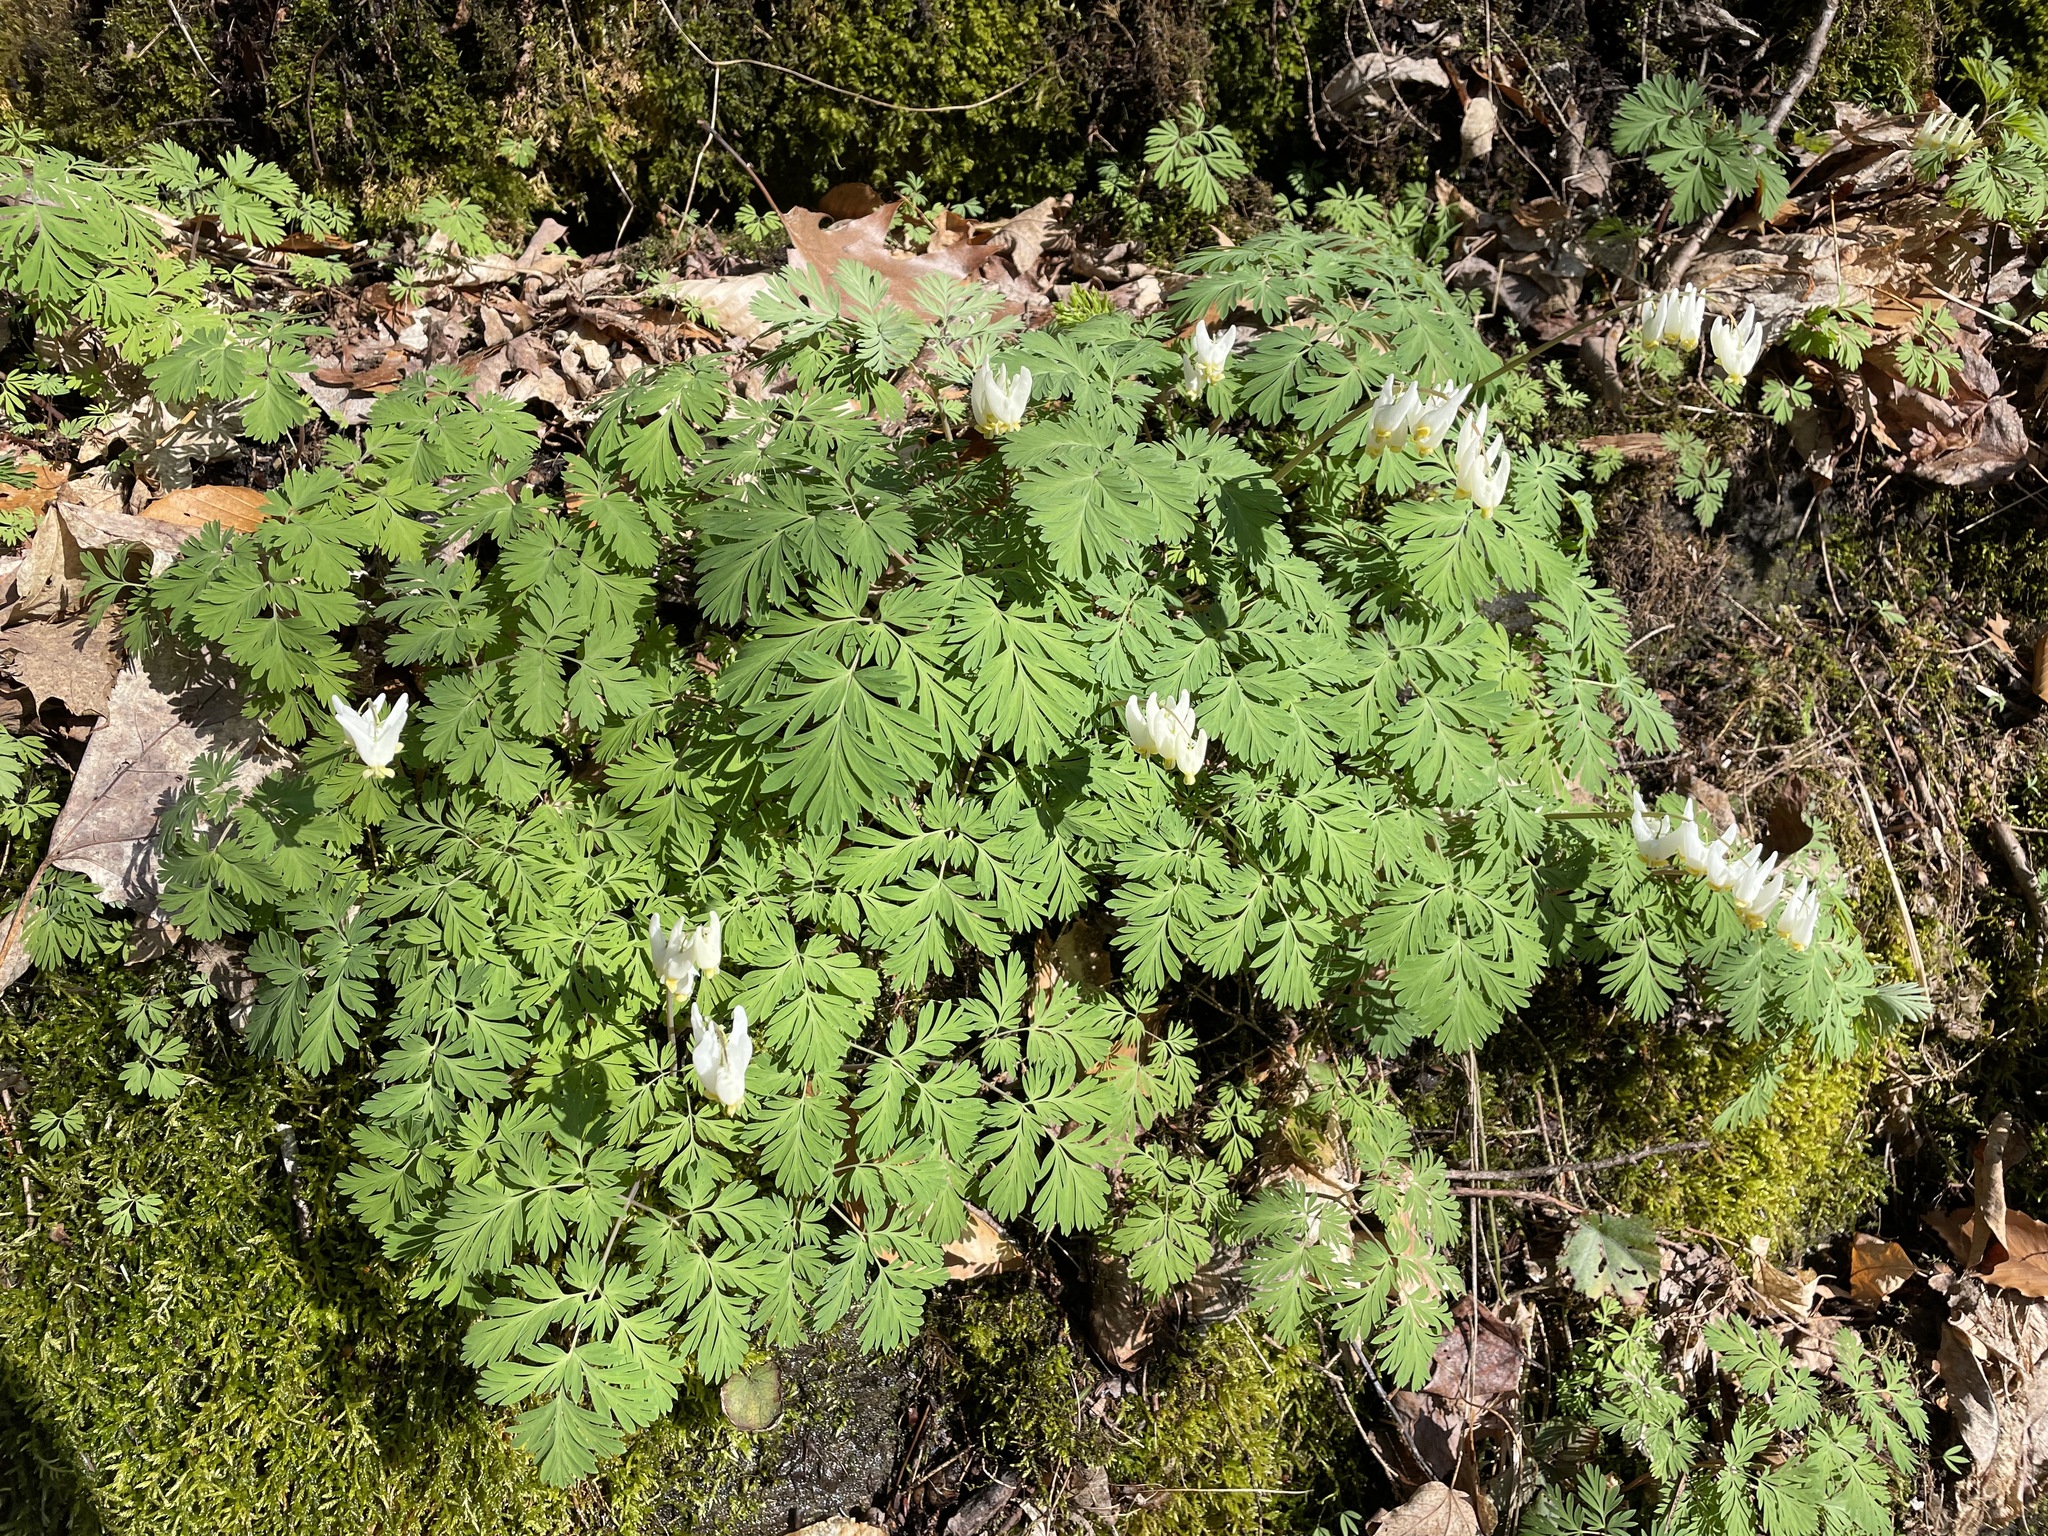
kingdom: Plantae
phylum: Tracheophyta
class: Magnoliopsida
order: Ranunculales
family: Papaveraceae
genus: Dicentra
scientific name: Dicentra cucullaria
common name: Dutchman's breeches
